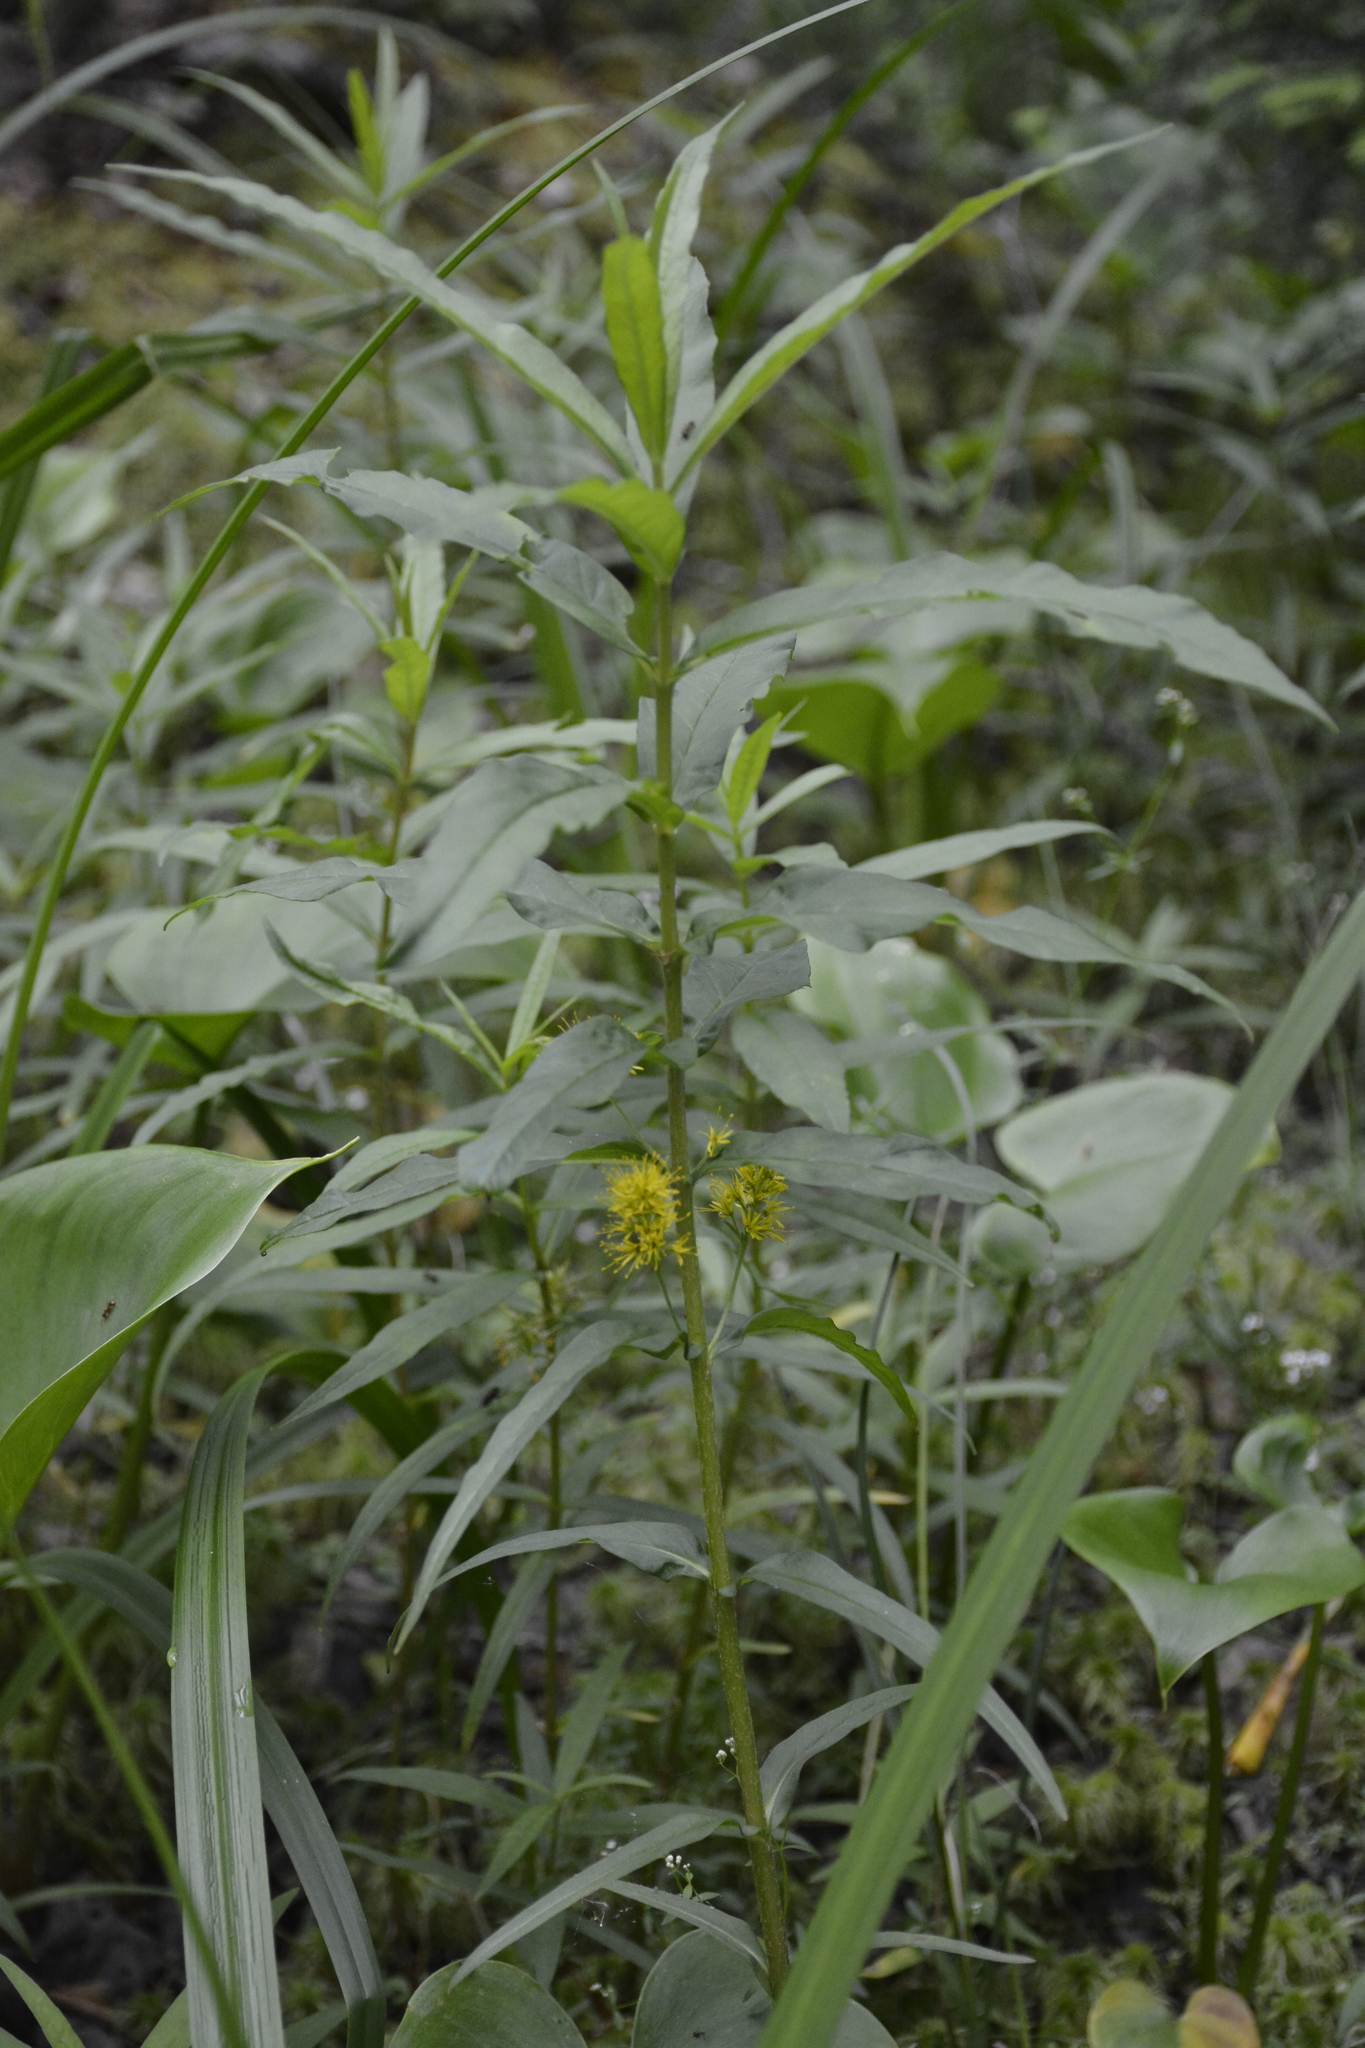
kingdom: Plantae
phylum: Tracheophyta
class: Magnoliopsida
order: Ericales
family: Primulaceae
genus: Lysimachia
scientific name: Lysimachia thyrsiflora
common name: Tufted loosestrife
